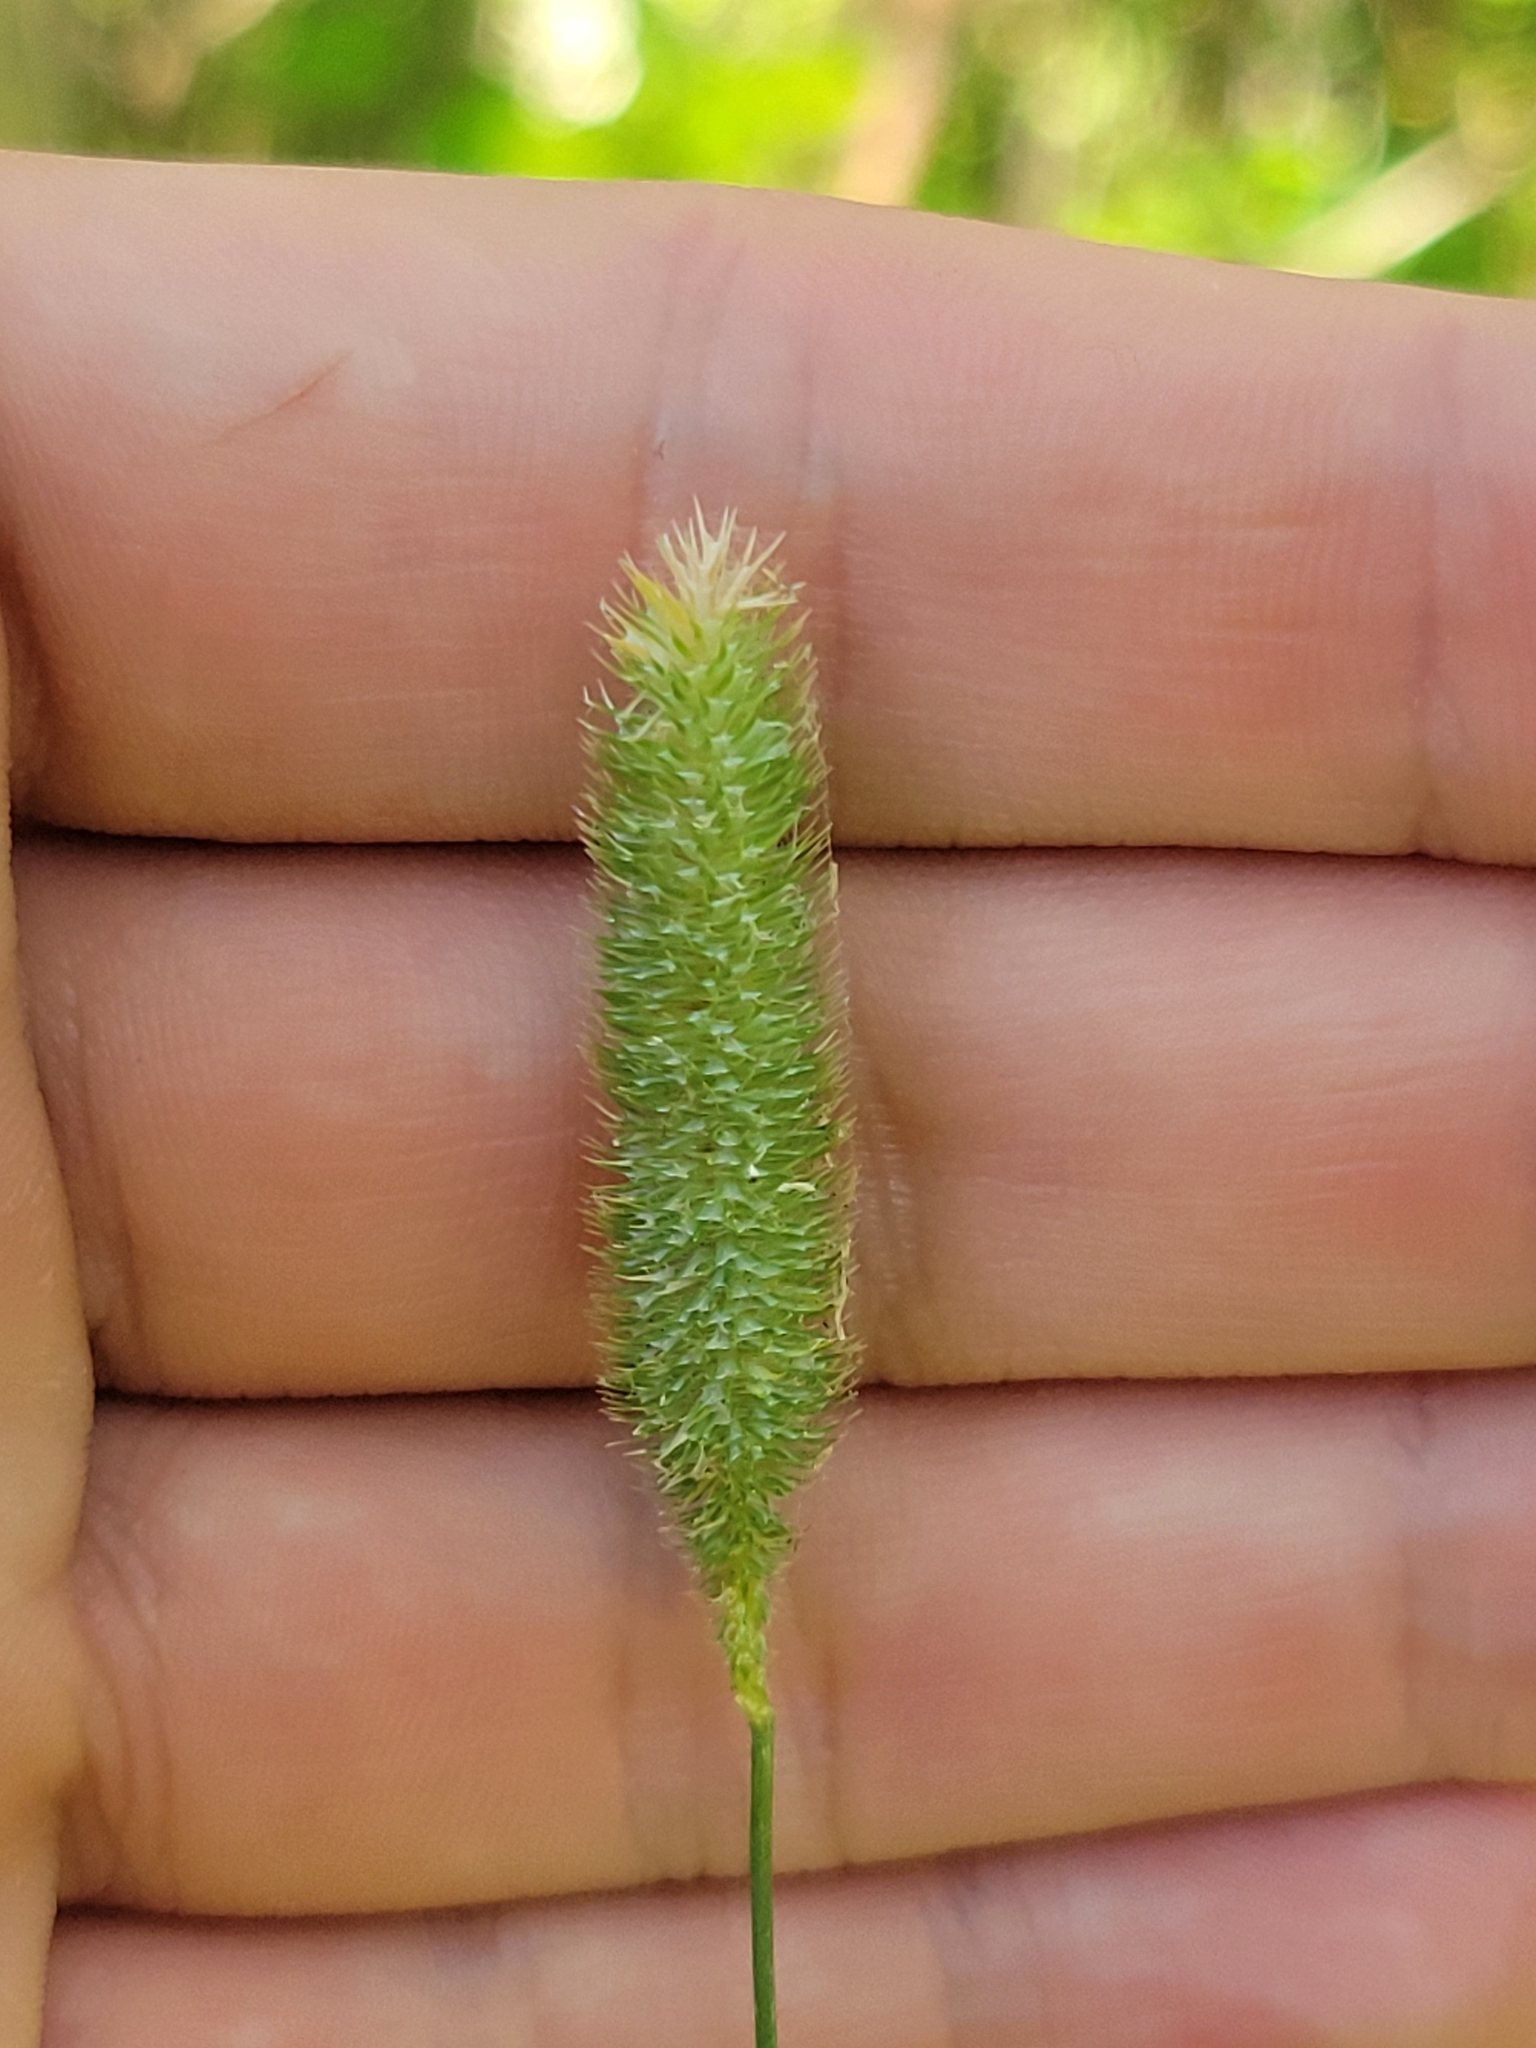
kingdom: Plantae
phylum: Tracheophyta
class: Liliopsida
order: Poales
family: Poaceae
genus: Phleum
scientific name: Phleum pratense
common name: Timothy grass
